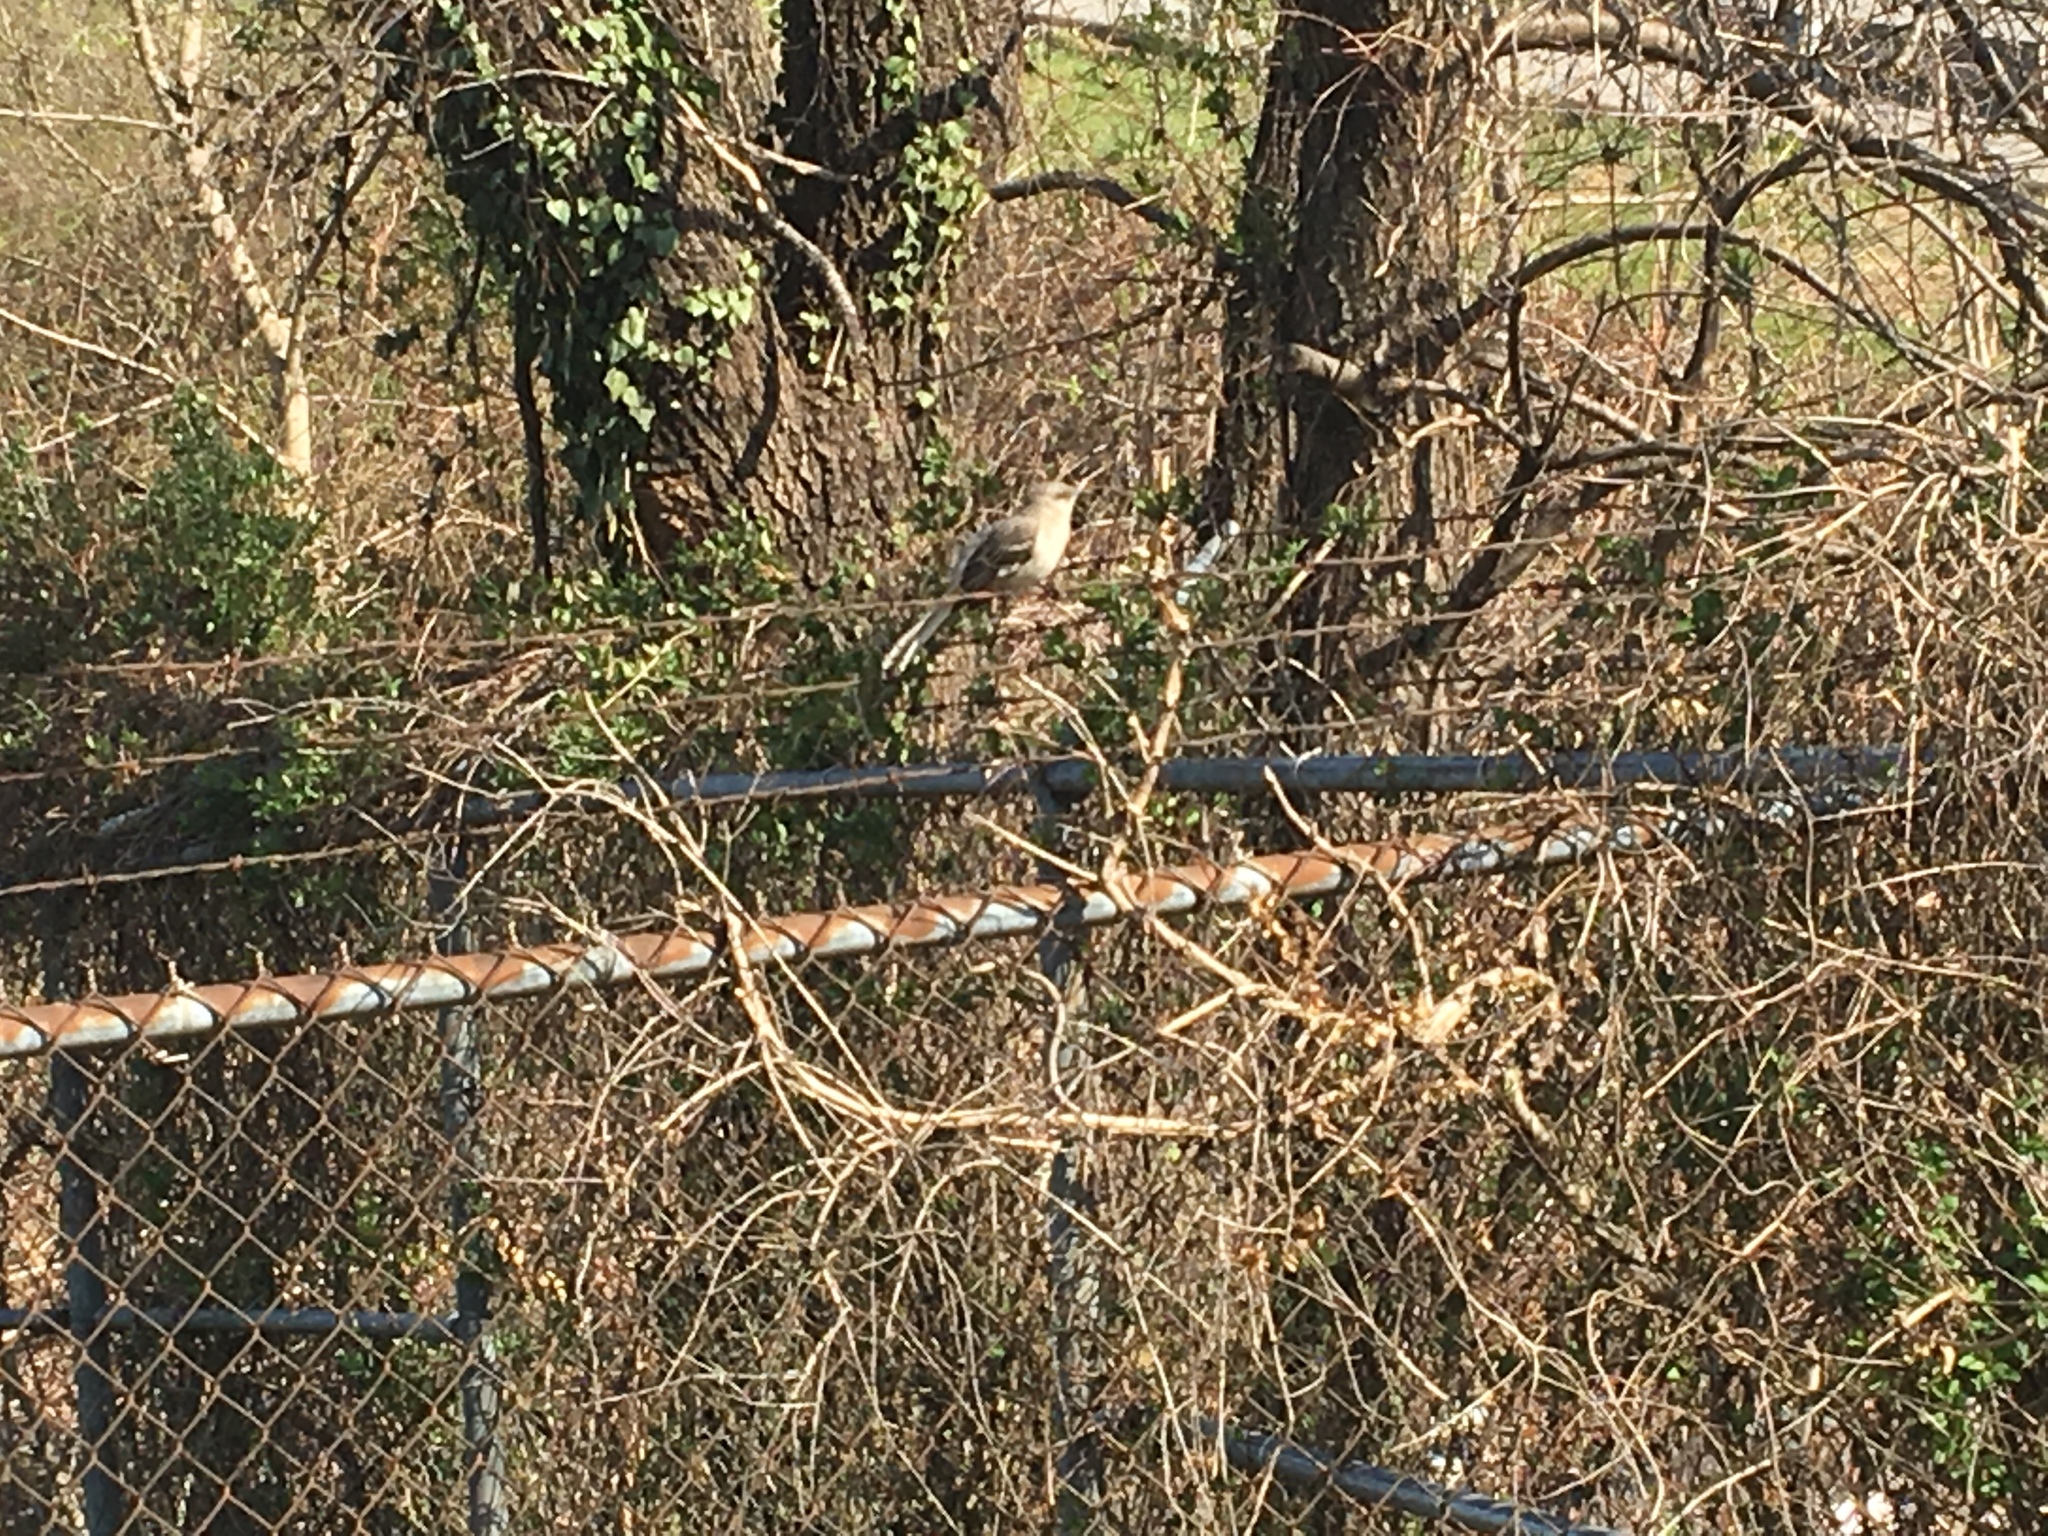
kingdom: Animalia
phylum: Chordata
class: Aves
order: Passeriformes
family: Mimidae
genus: Mimus
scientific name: Mimus polyglottos
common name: Northern mockingbird
